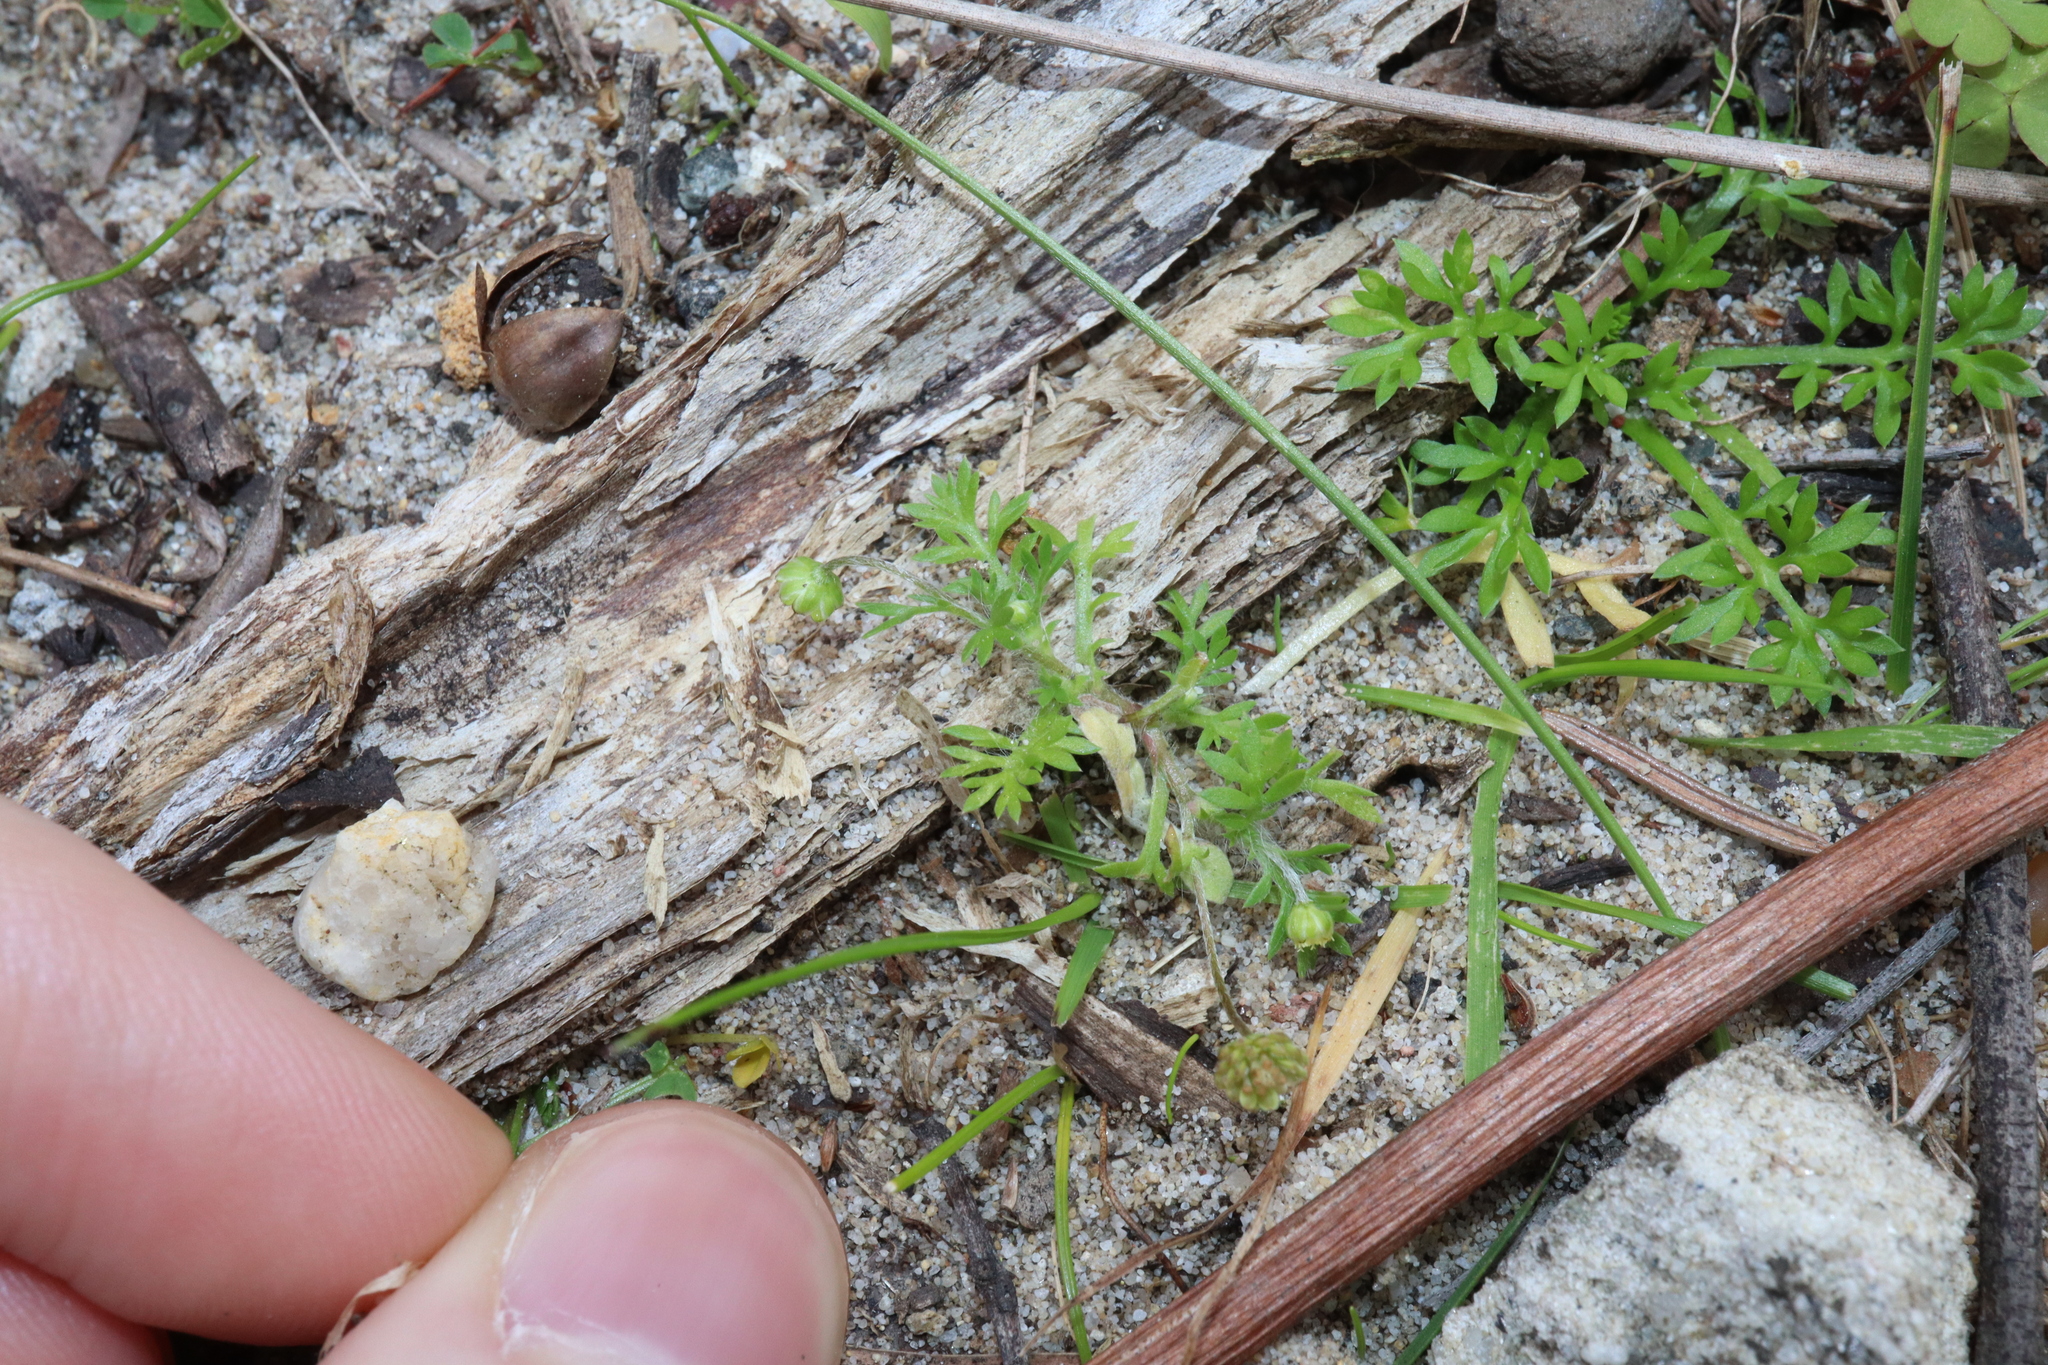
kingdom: Plantae
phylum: Tracheophyta
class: Magnoliopsida
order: Asterales
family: Asteraceae
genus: Cotula
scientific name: Cotula australis
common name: Australian waterbuttons
